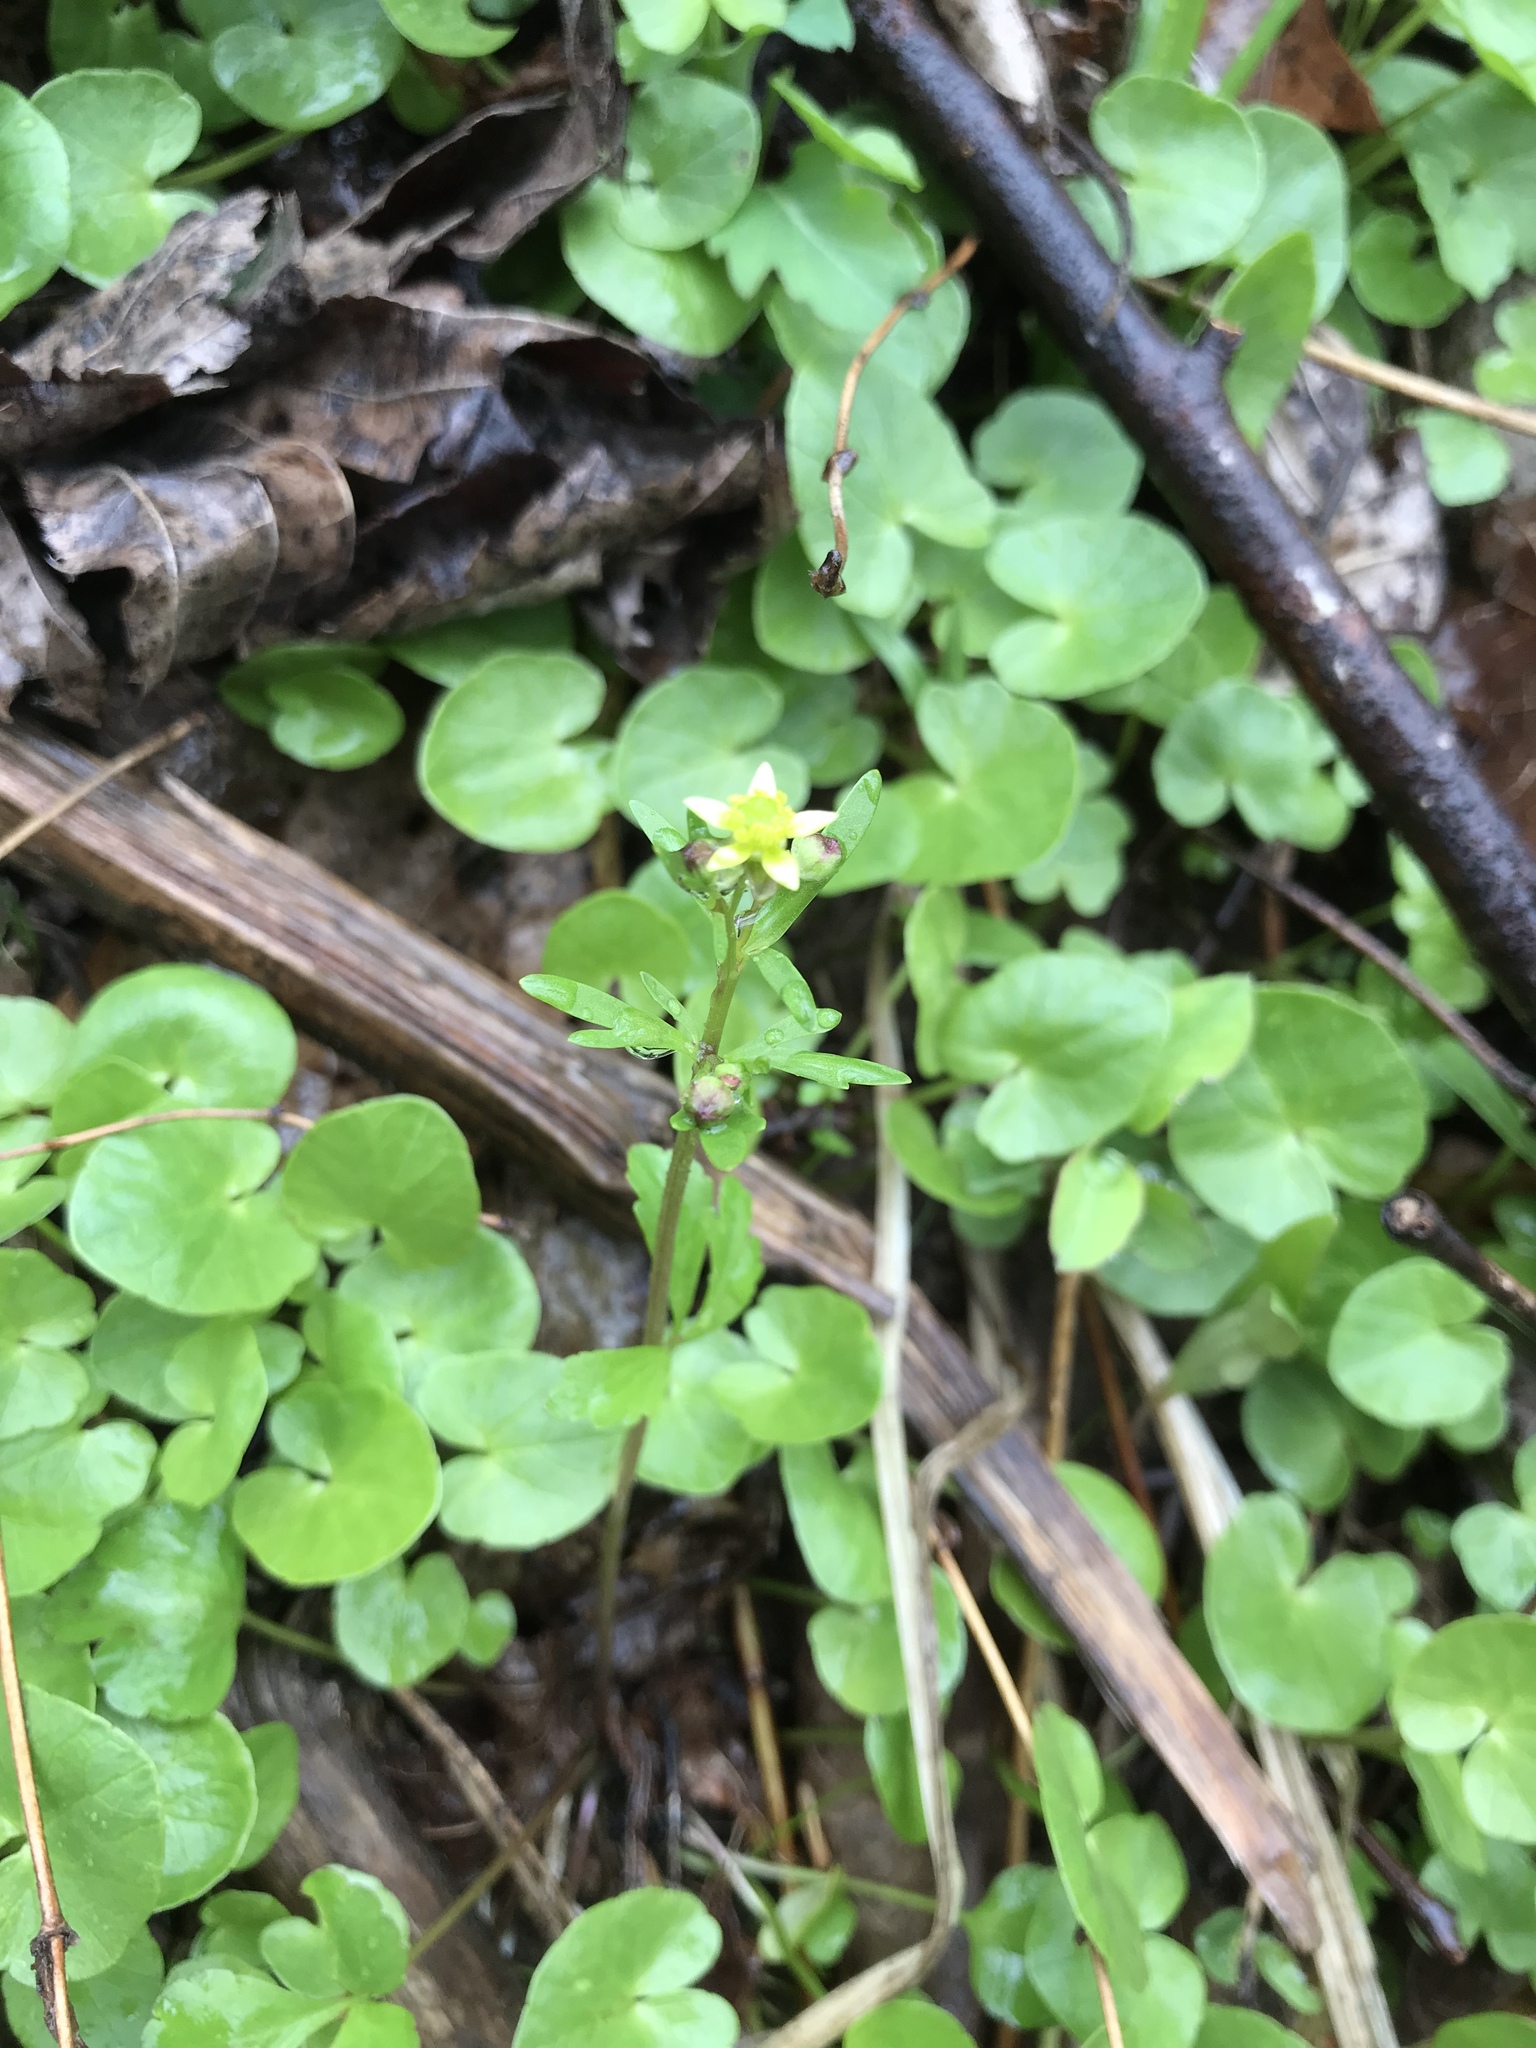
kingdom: Plantae
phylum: Tracheophyta
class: Magnoliopsida
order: Ranunculales
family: Ranunculaceae
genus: Ranunculus
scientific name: Ranunculus abortivus
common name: Early wood buttercup
